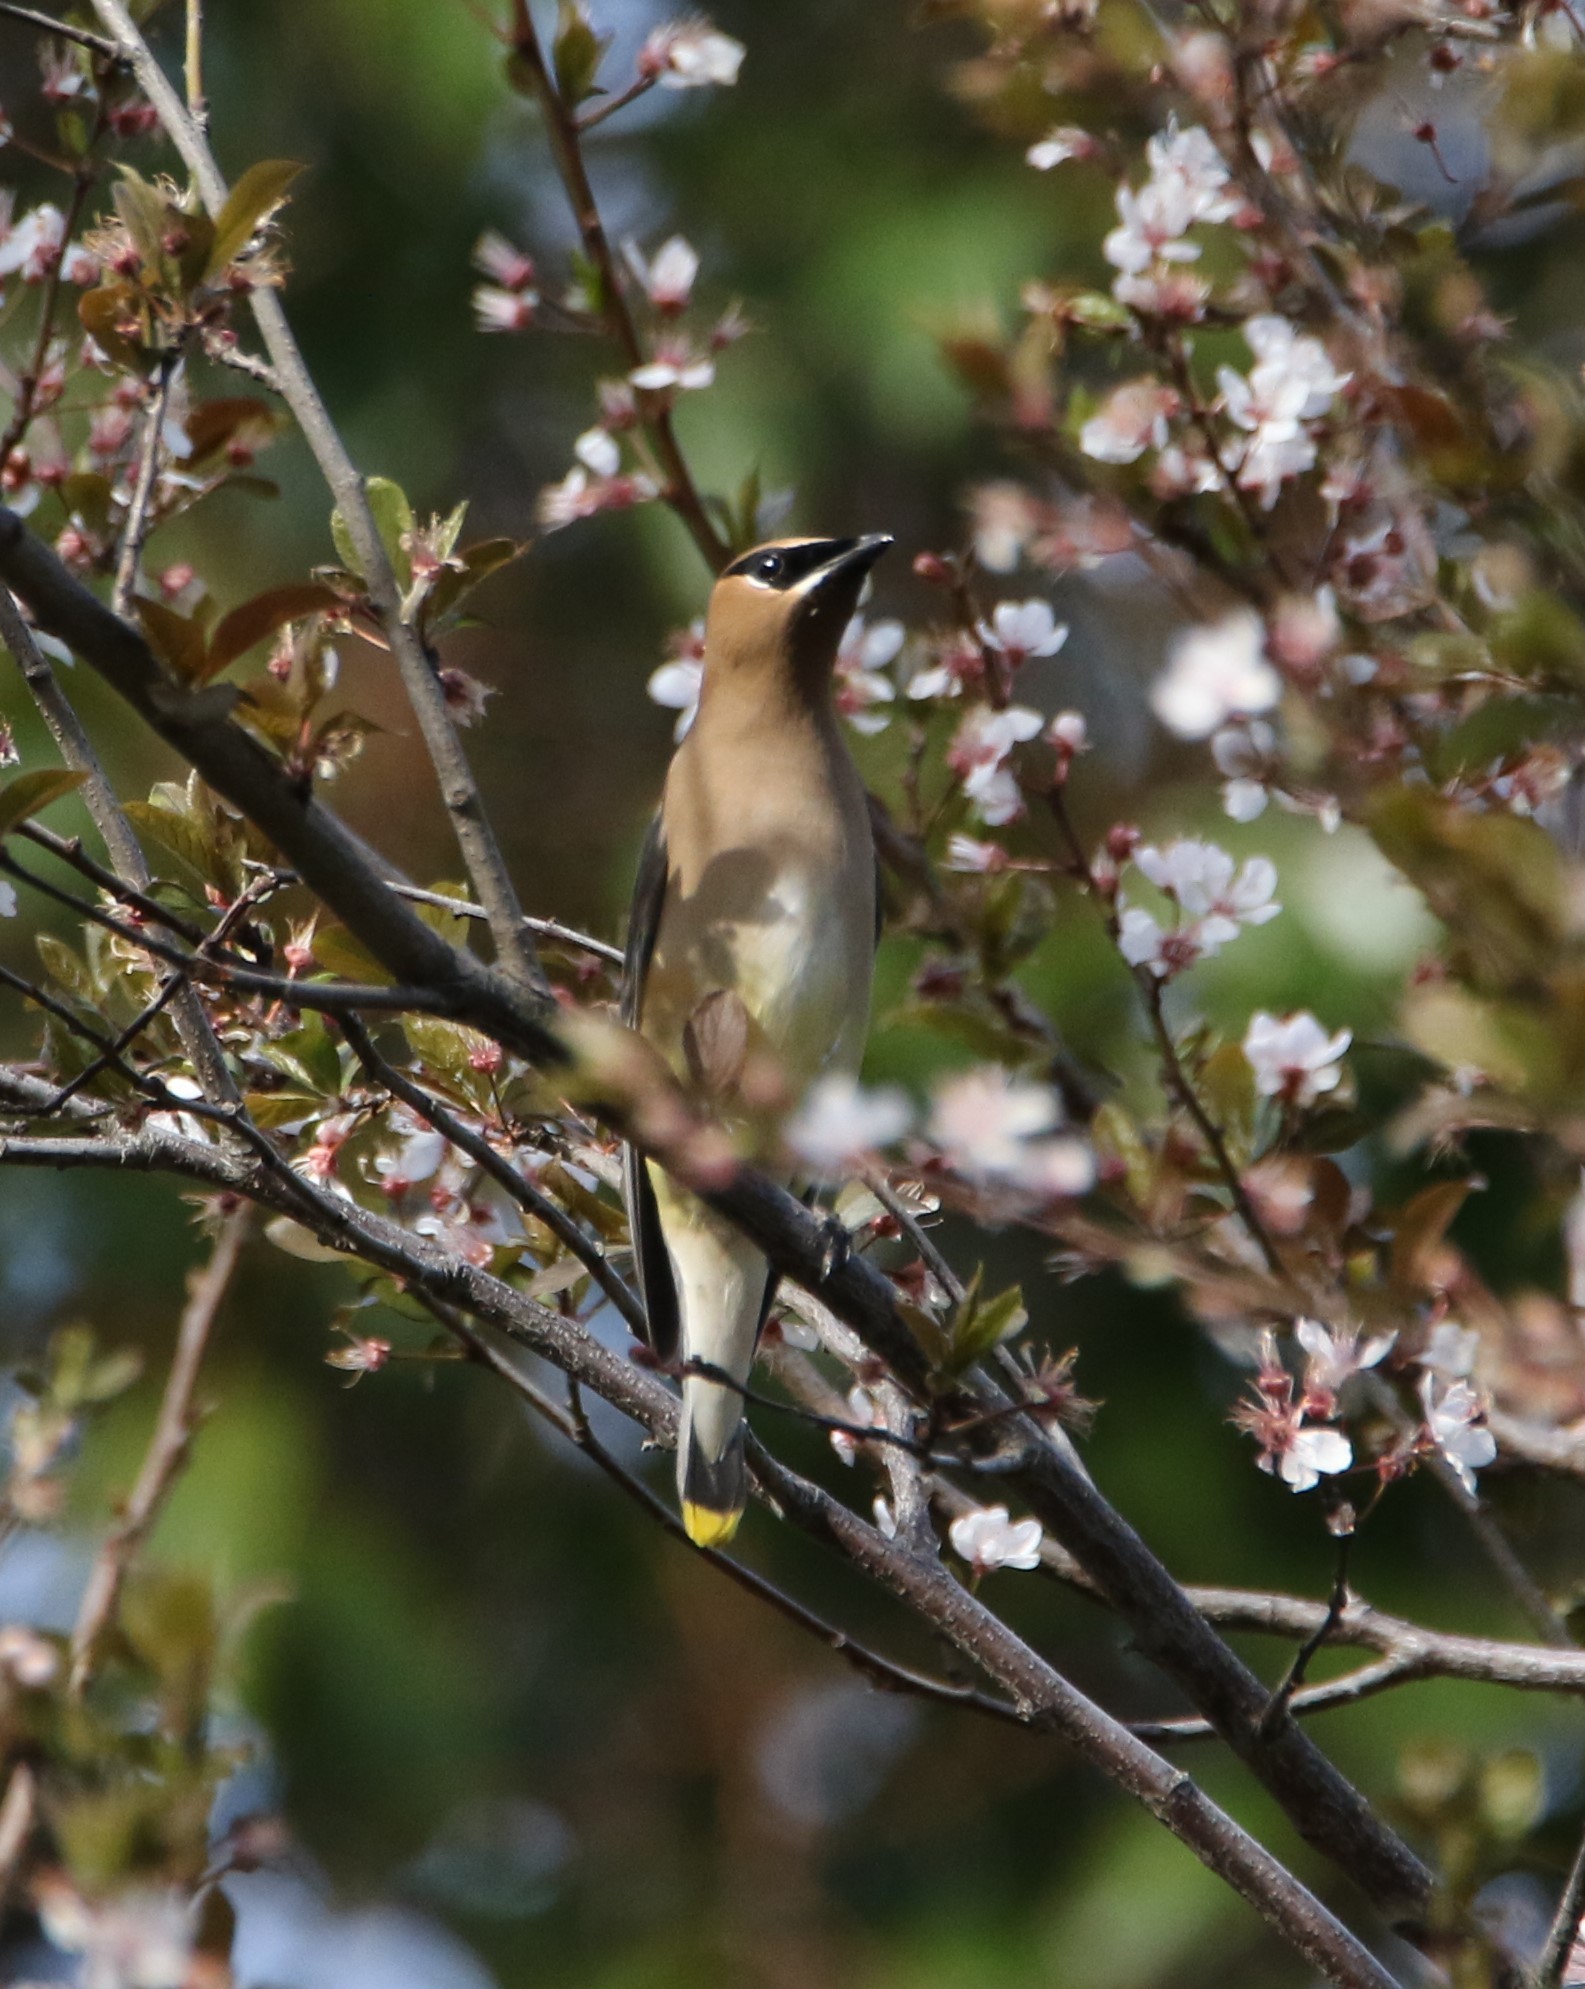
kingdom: Animalia
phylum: Chordata
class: Aves
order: Passeriformes
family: Bombycillidae
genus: Bombycilla
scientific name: Bombycilla cedrorum
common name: Cedar waxwing
